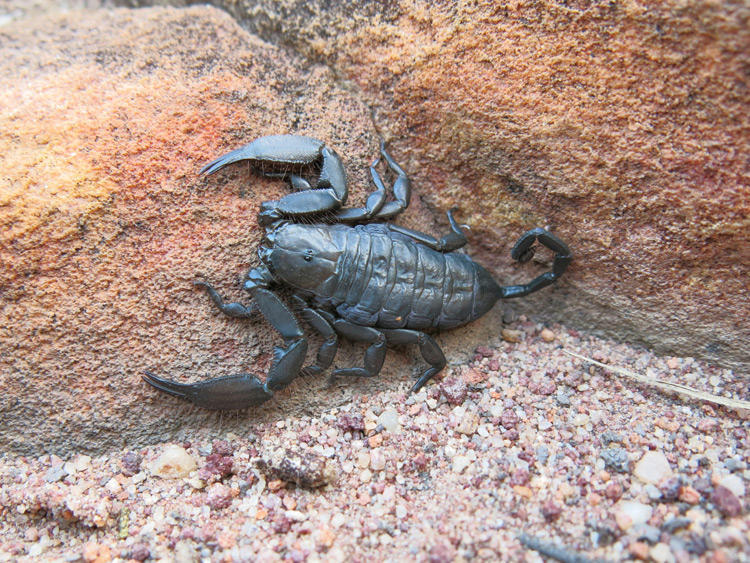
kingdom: Animalia
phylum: Arthropoda
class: Arachnida
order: Scorpiones
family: Hormuridae
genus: Hadogenes
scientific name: Hadogenes troglodytes
